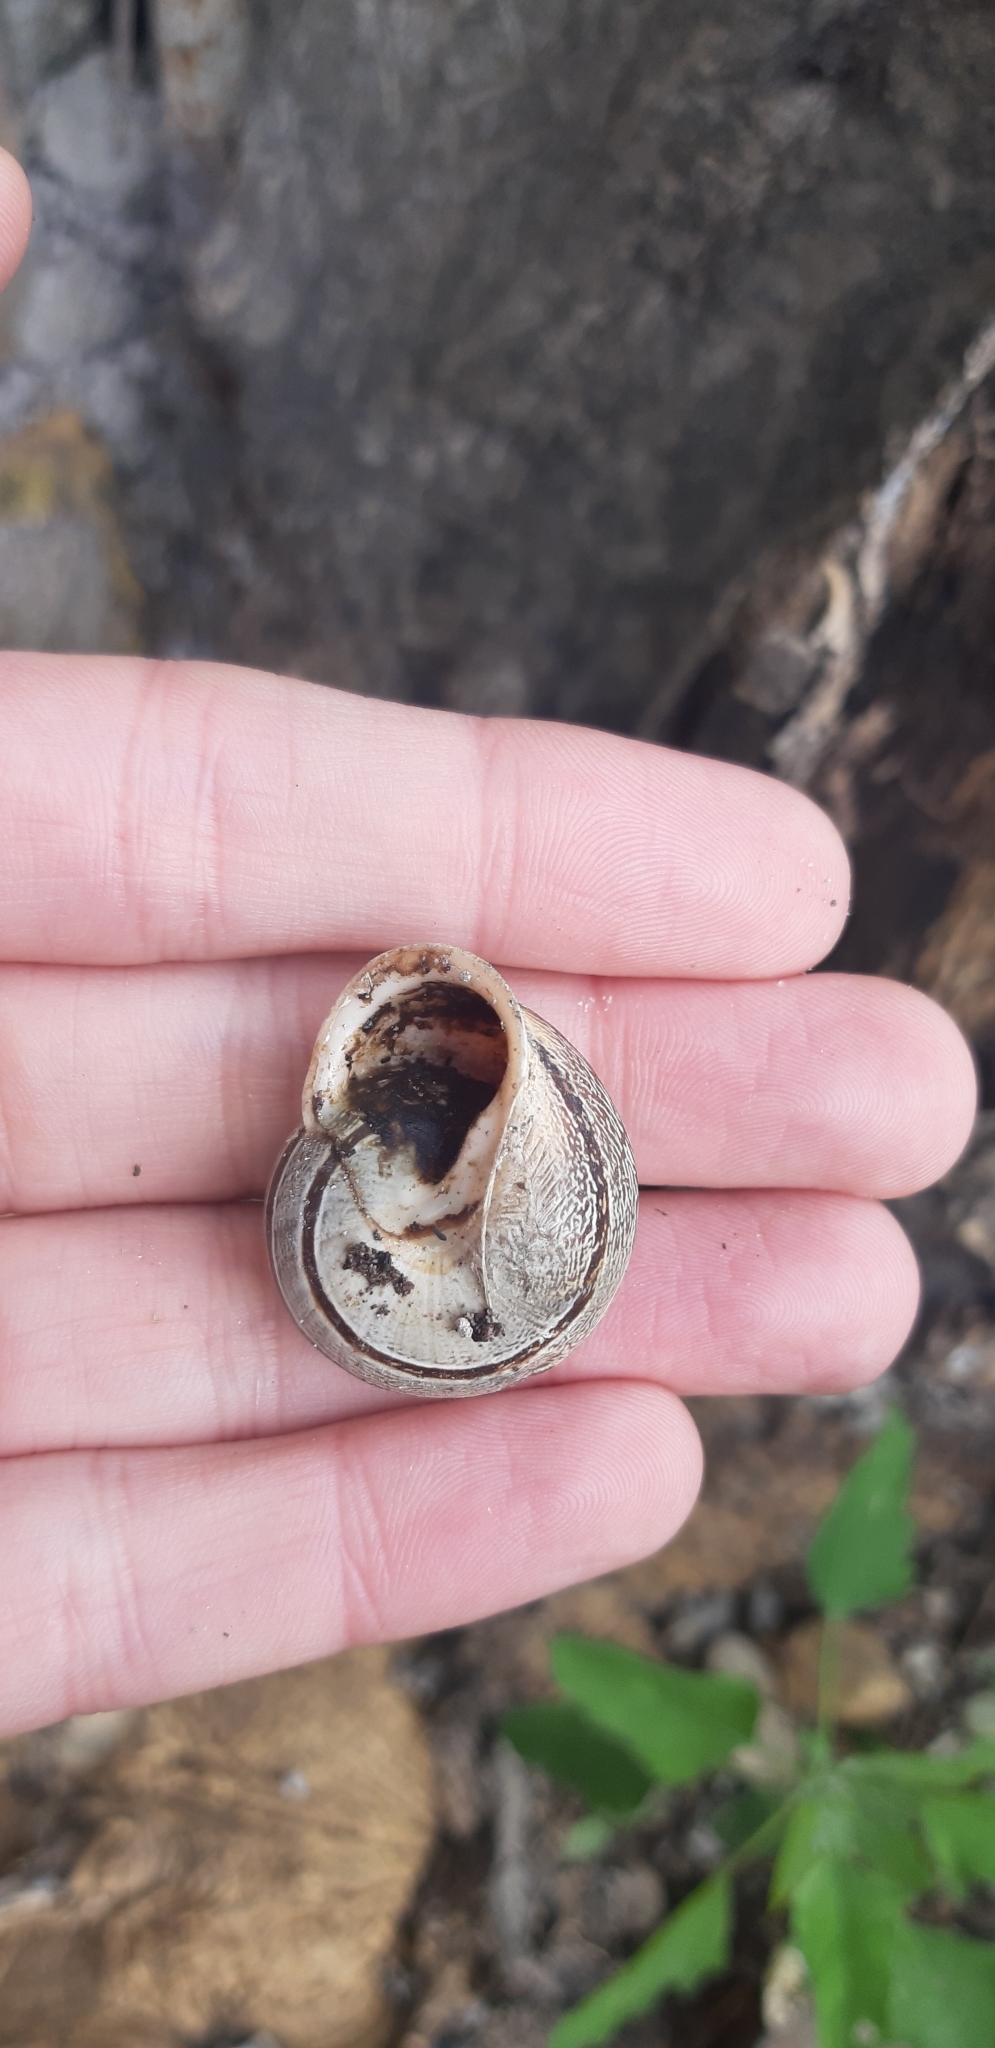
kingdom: Animalia
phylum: Mollusca
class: Gastropoda
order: Stylommatophora
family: Helicidae
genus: Eobania
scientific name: Eobania vermiculata
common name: Chocolateband snail
